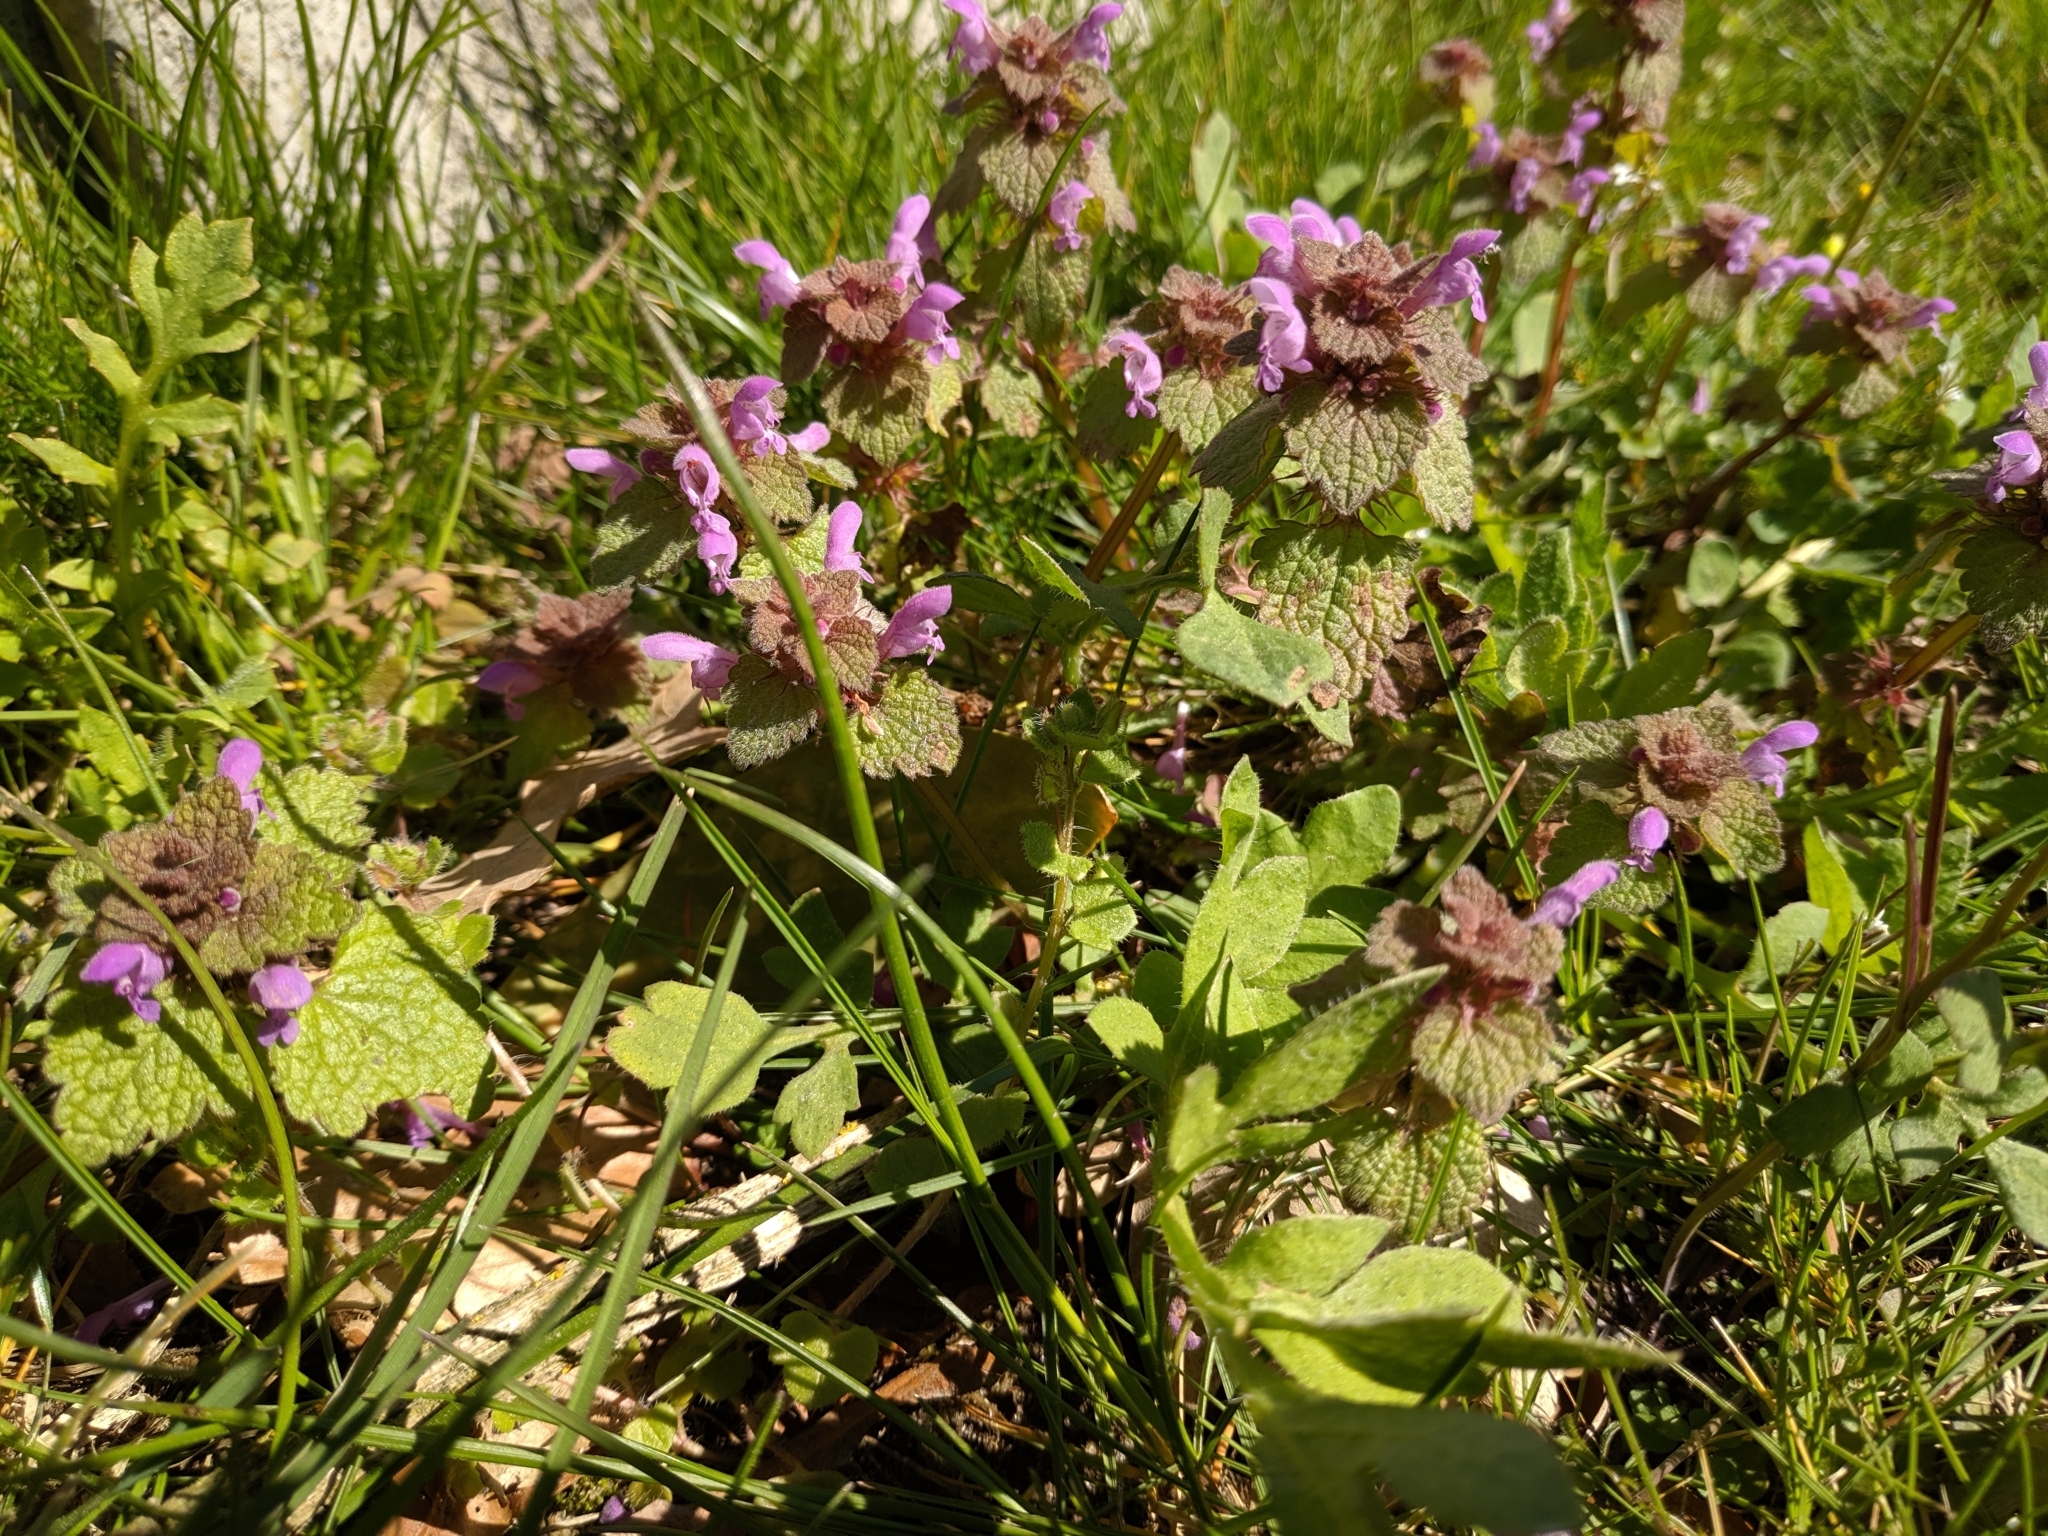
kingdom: Plantae
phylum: Tracheophyta
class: Magnoliopsida
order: Lamiales
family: Lamiaceae
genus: Lamium
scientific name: Lamium purpureum
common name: Red dead-nettle
